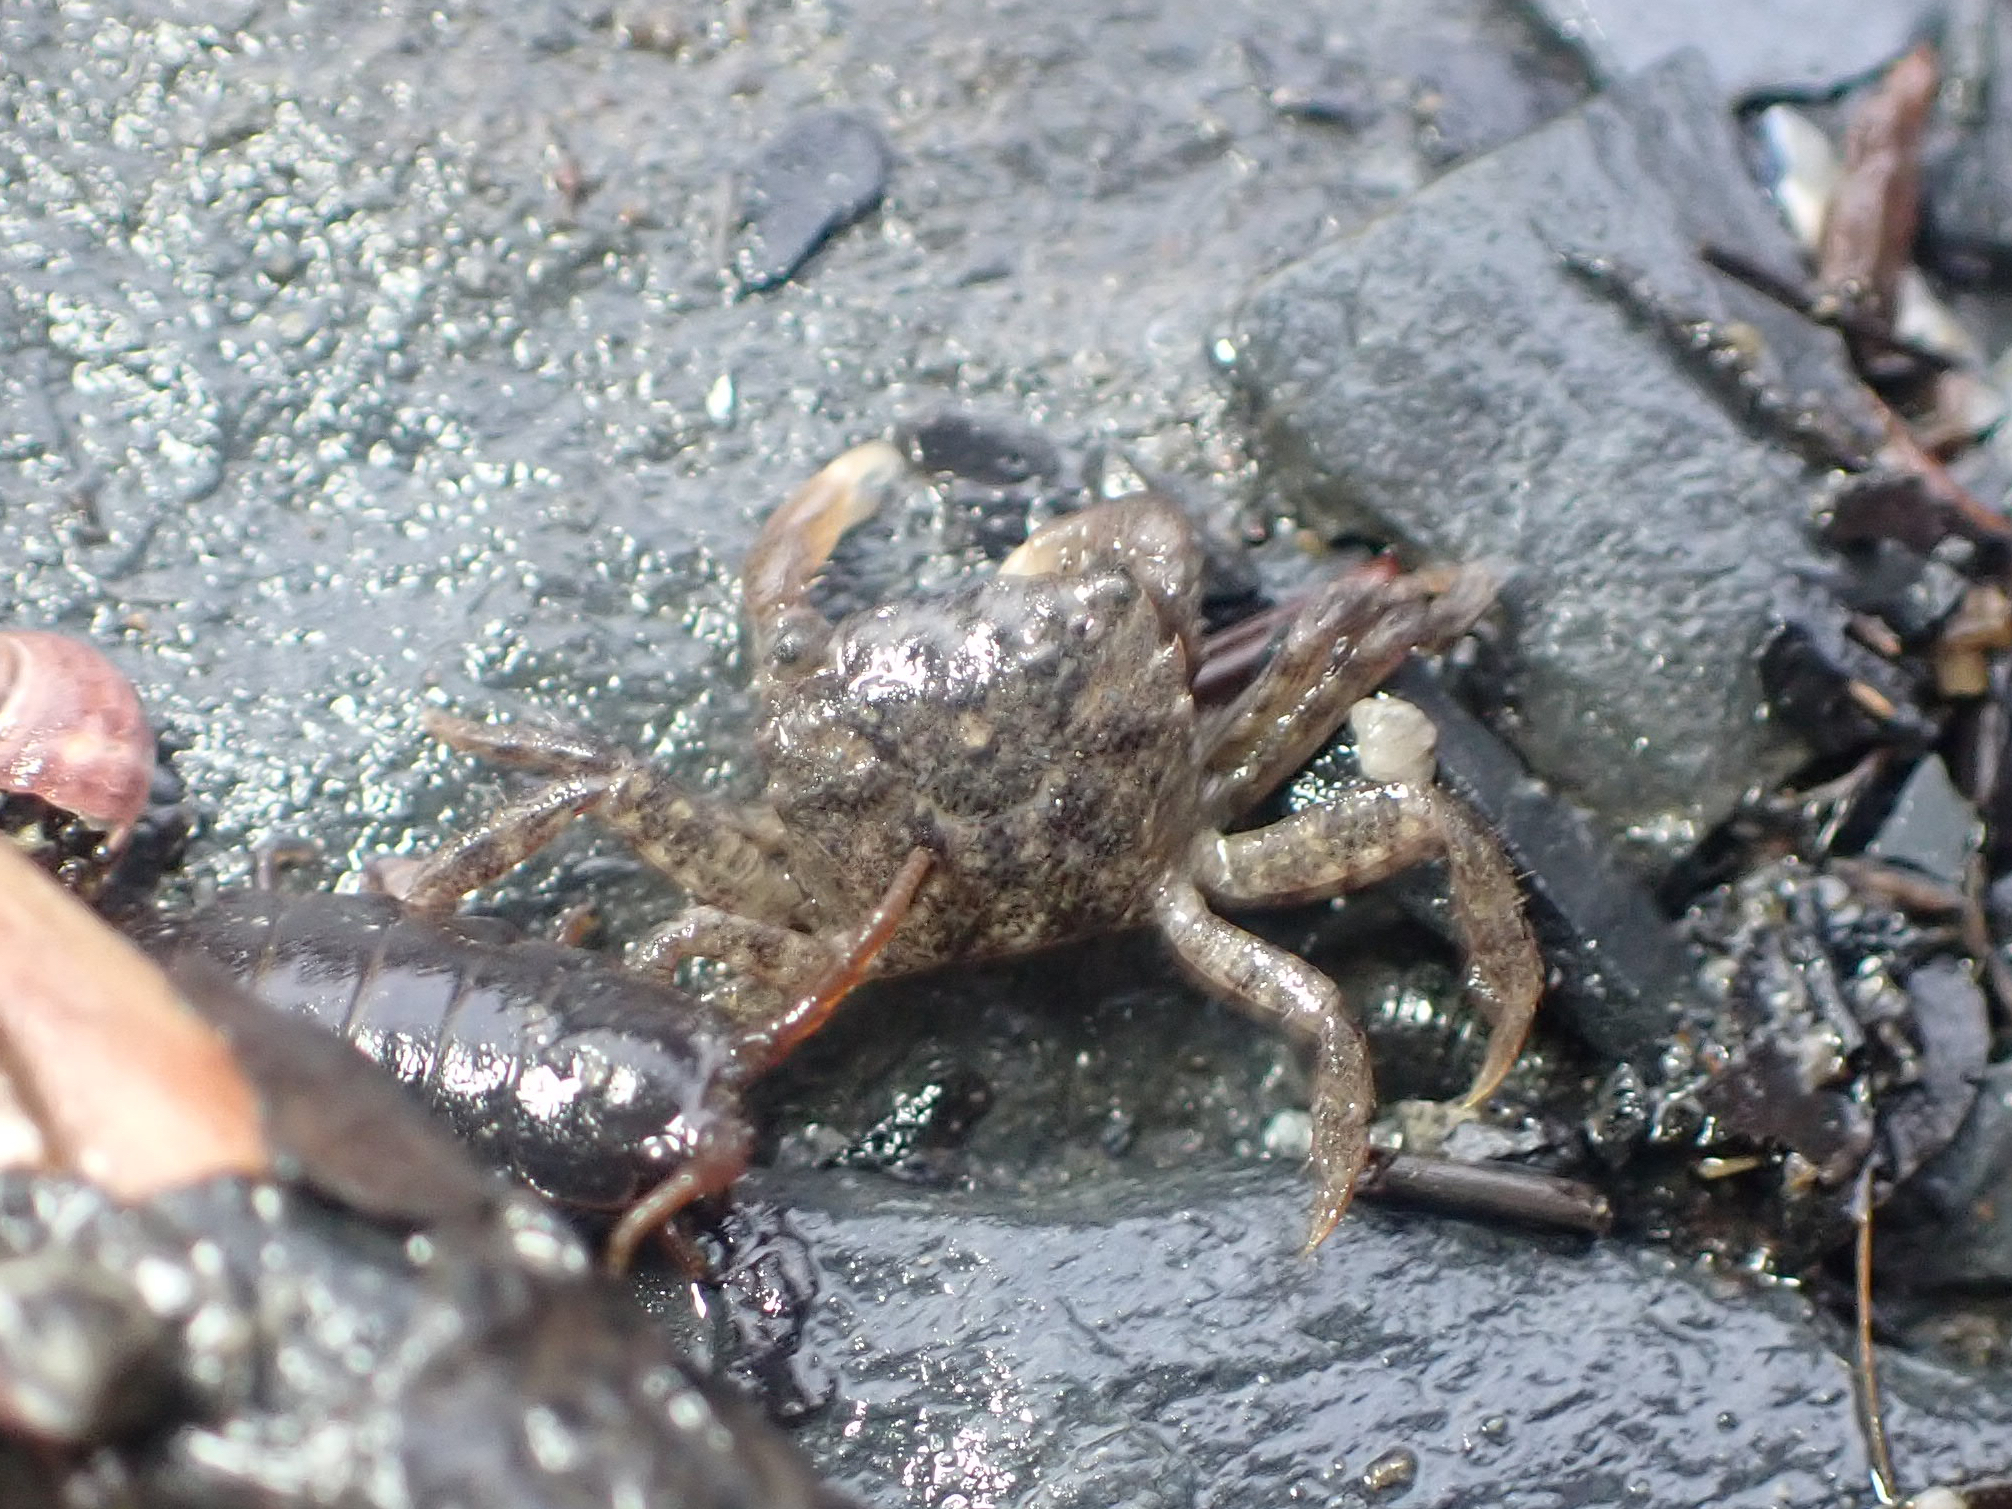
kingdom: Animalia
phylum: Arthropoda
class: Malacostraca
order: Decapoda
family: Varunidae
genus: Hemigrapsus
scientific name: Hemigrapsus oregonensis
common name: Yellow shore crab
